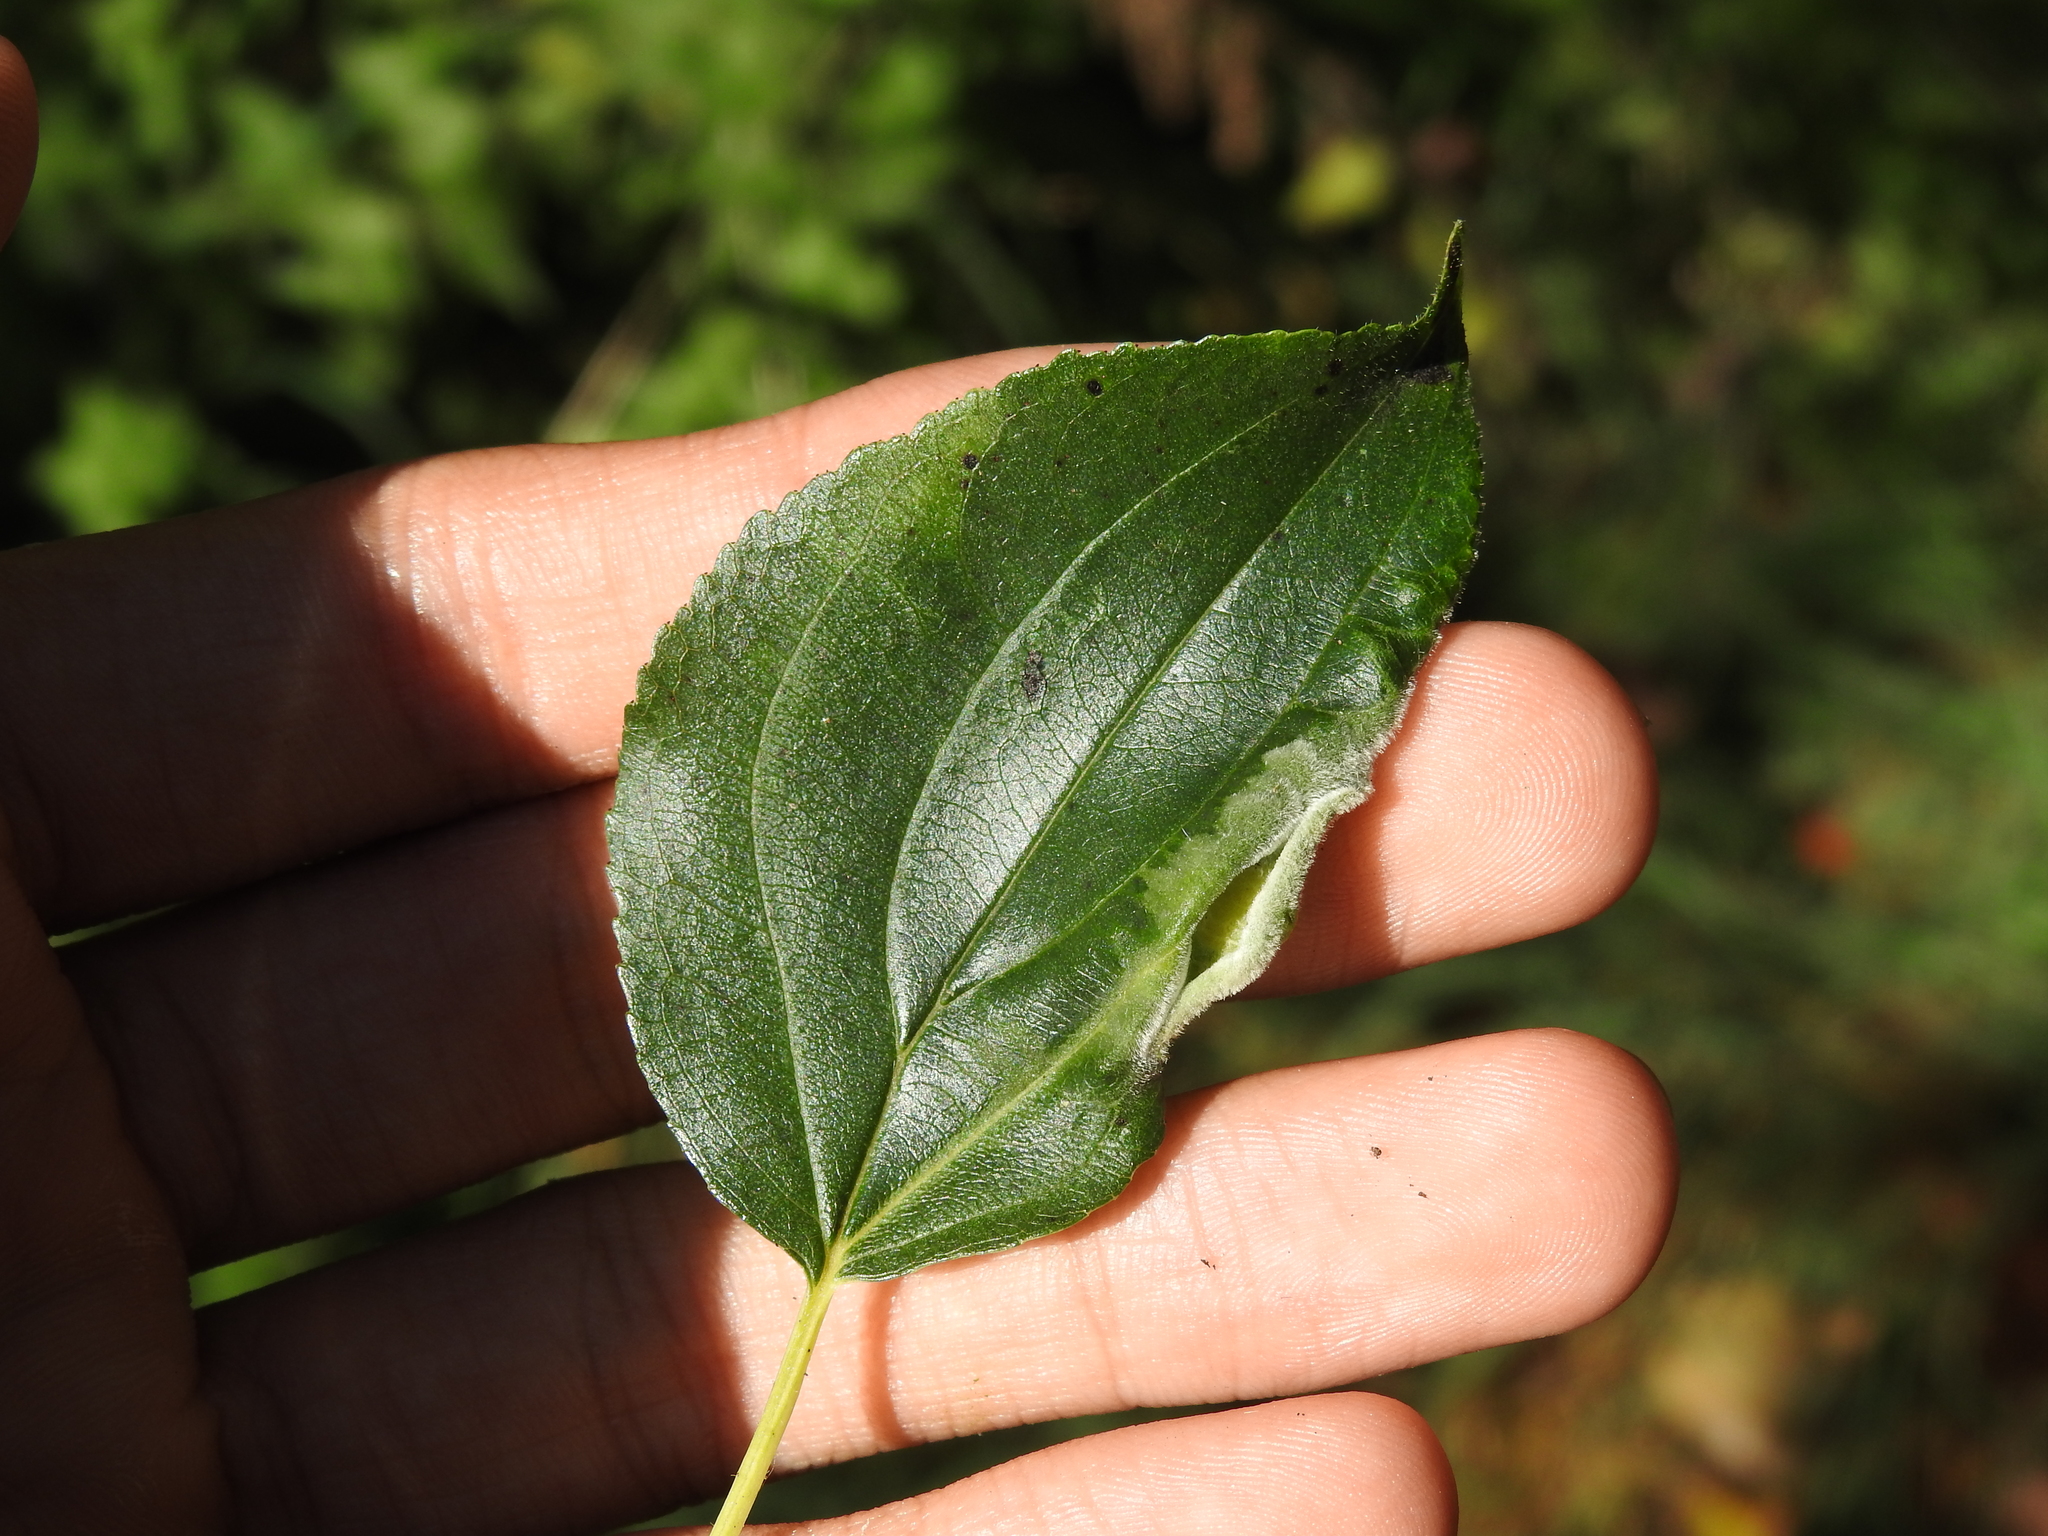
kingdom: Animalia
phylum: Arthropoda
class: Insecta
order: Hemiptera
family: Triozidae
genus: Trichochermes
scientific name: Trichochermes walkeri
